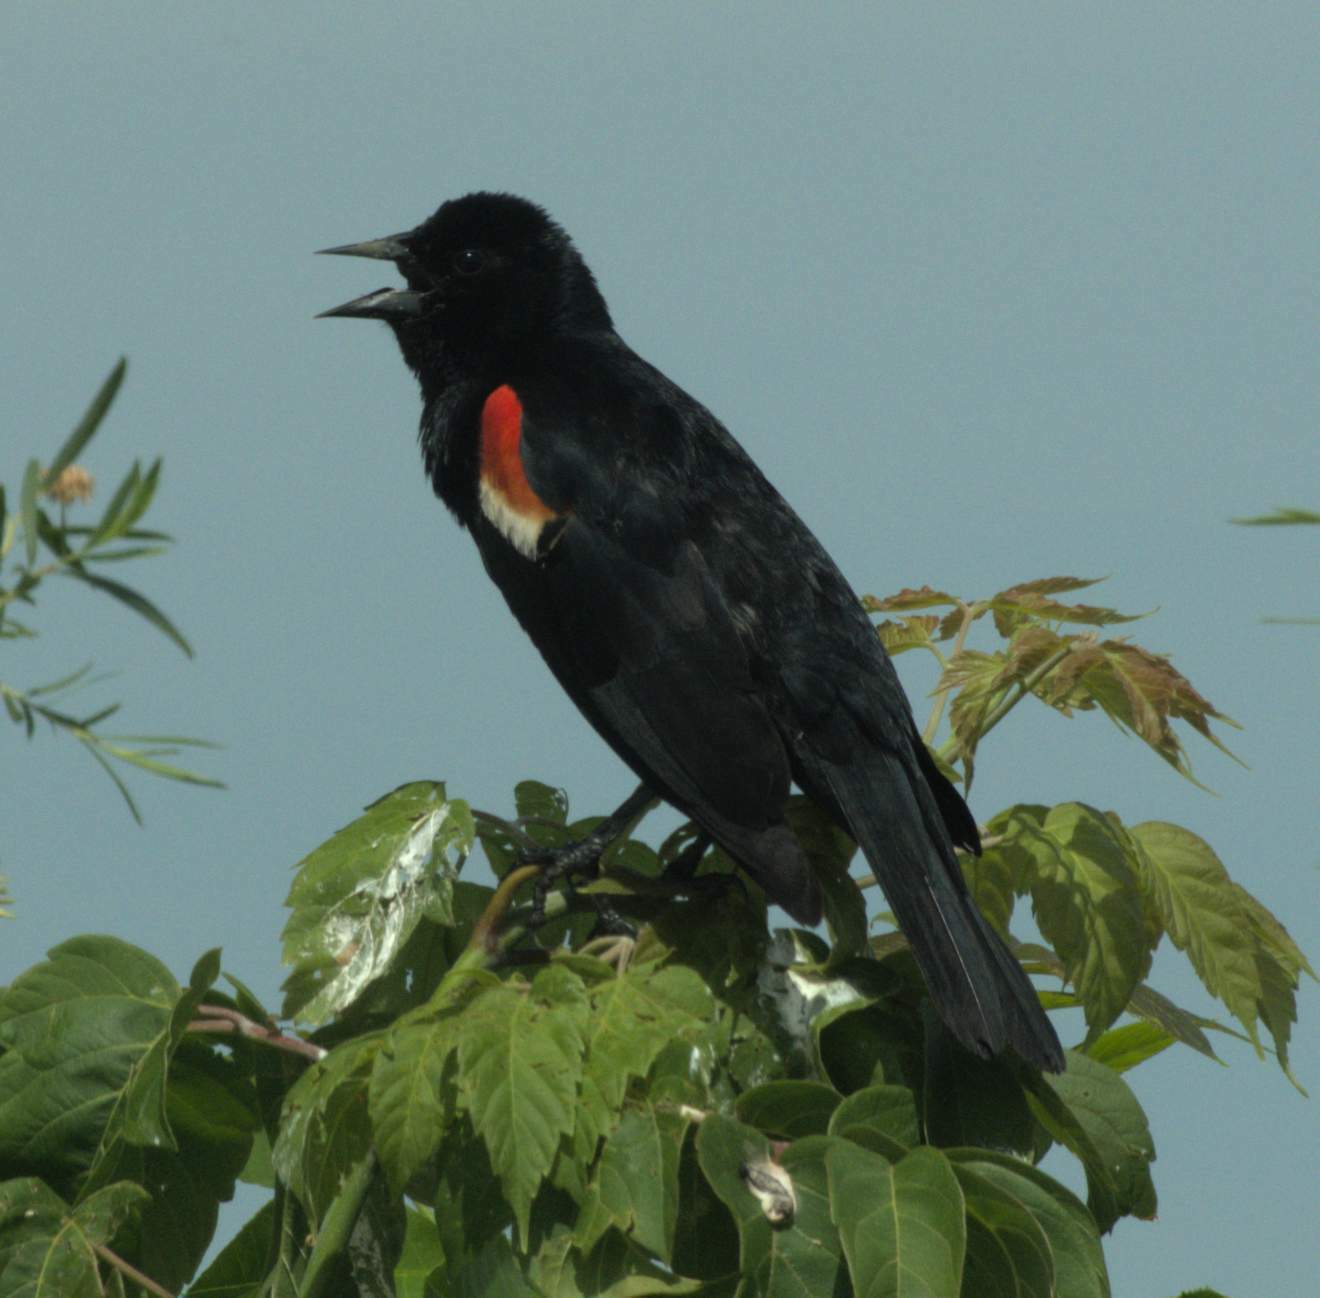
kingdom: Animalia
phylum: Chordata
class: Aves
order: Passeriformes
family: Icteridae
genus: Agelaius
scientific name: Agelaius phoeniceus
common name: Red-winged blackbird
